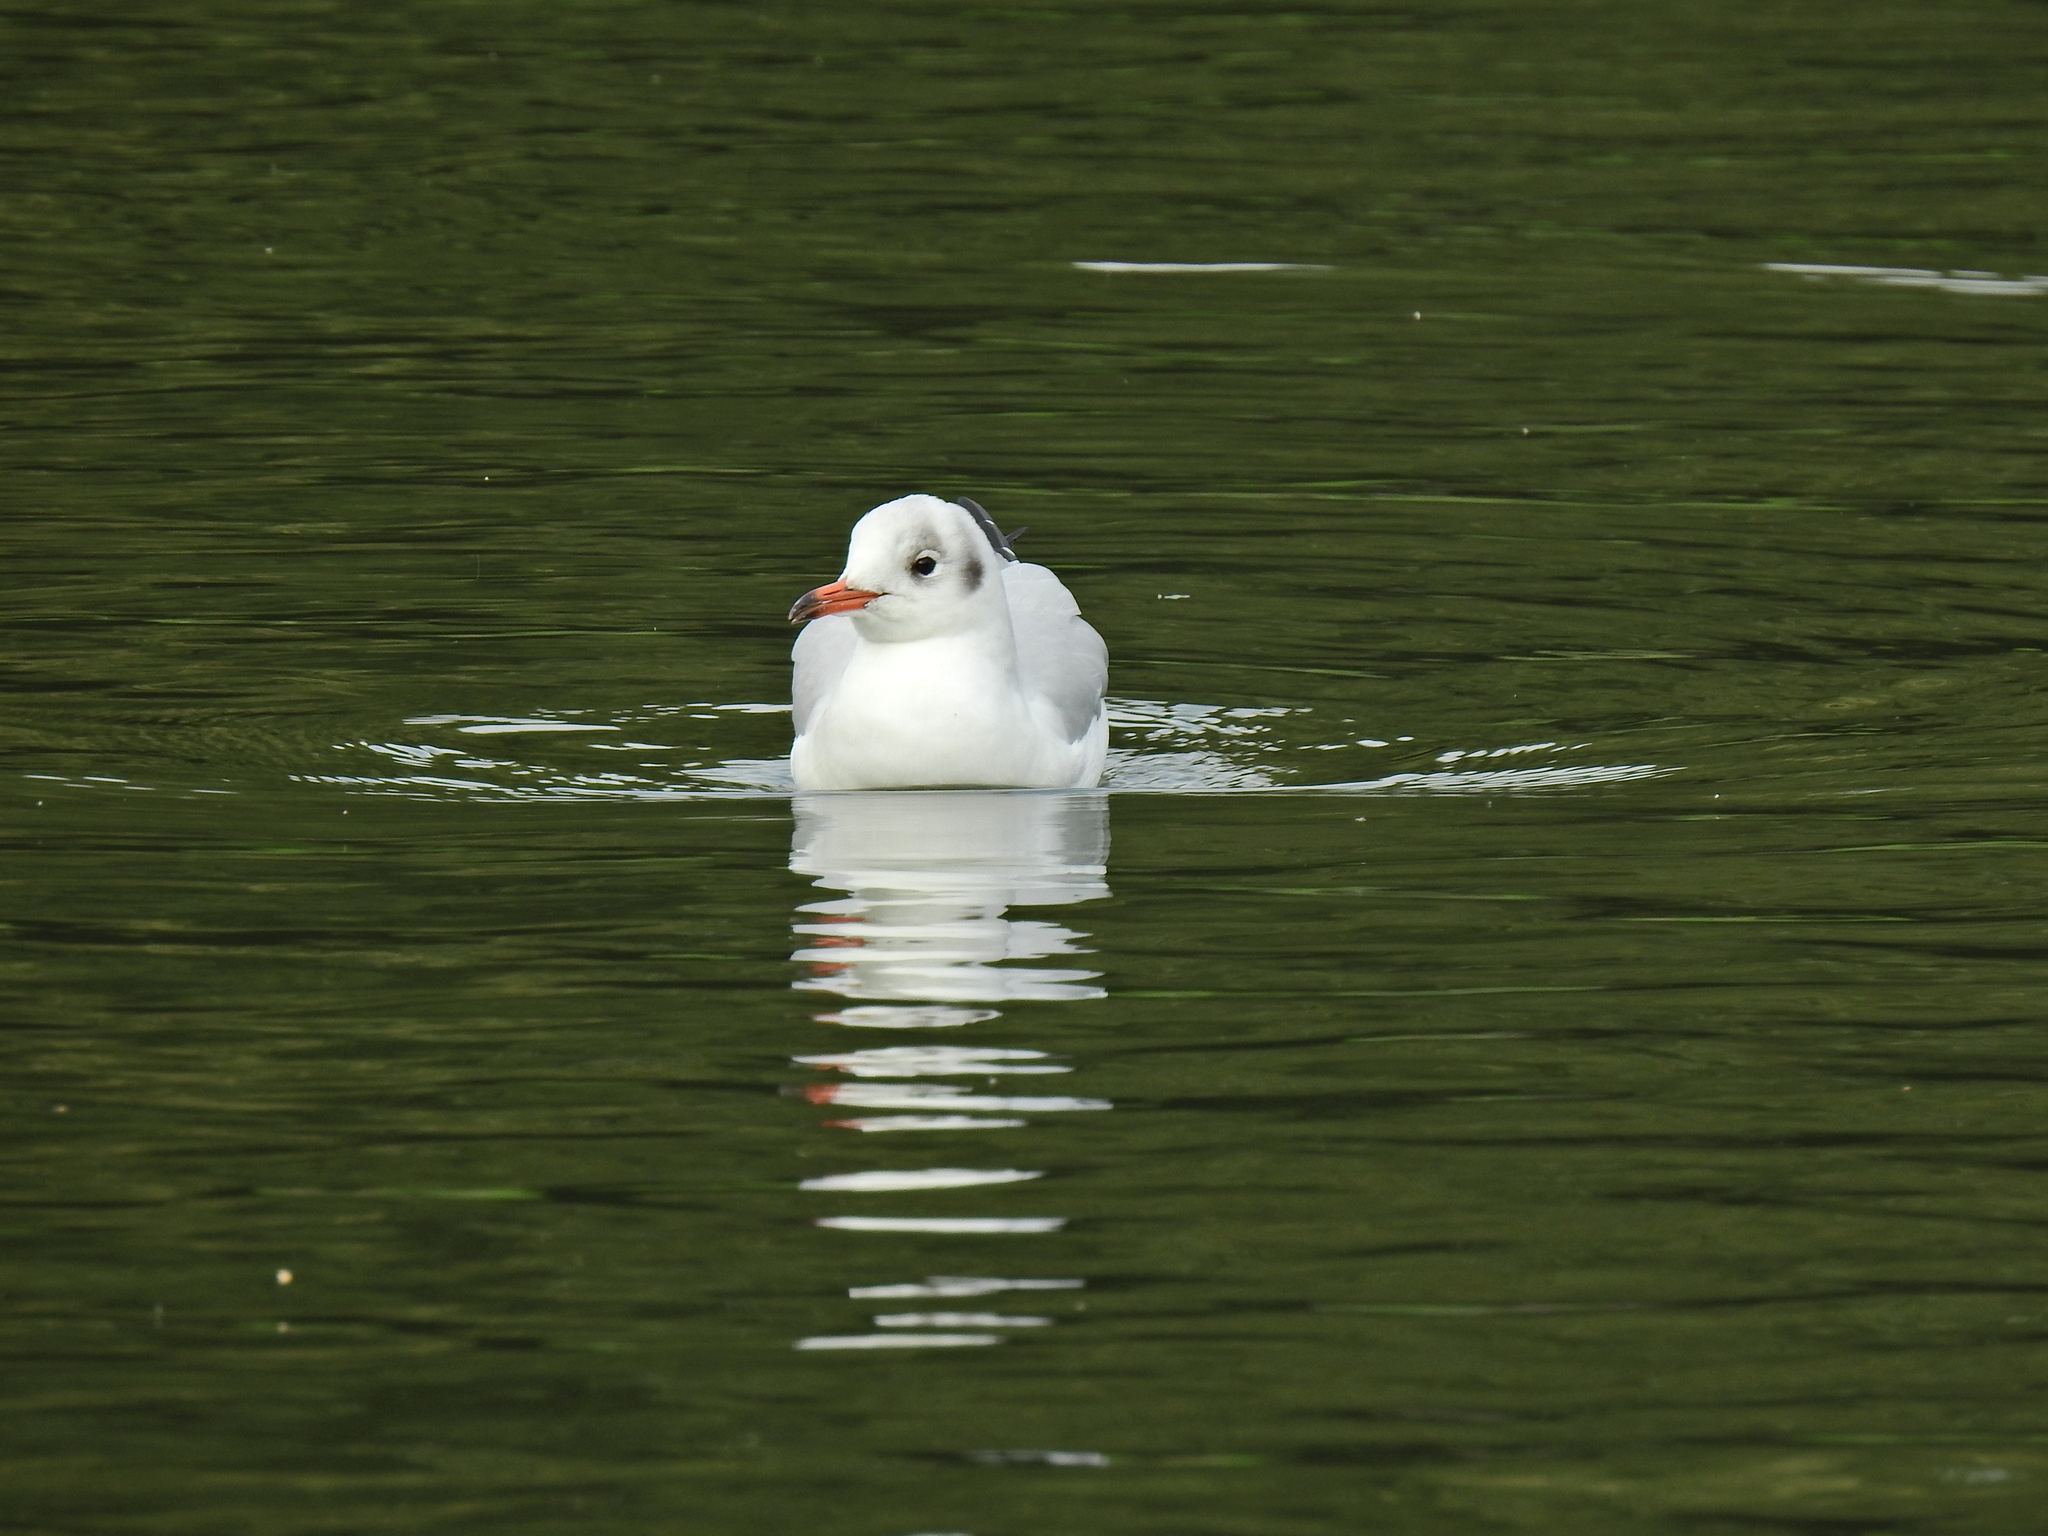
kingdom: Animalia
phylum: Chordata
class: Aves
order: Charadriiformes
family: Laridae
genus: Chroicocephalus
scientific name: Chroicocephalus ridibundus
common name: Black-headed gull
